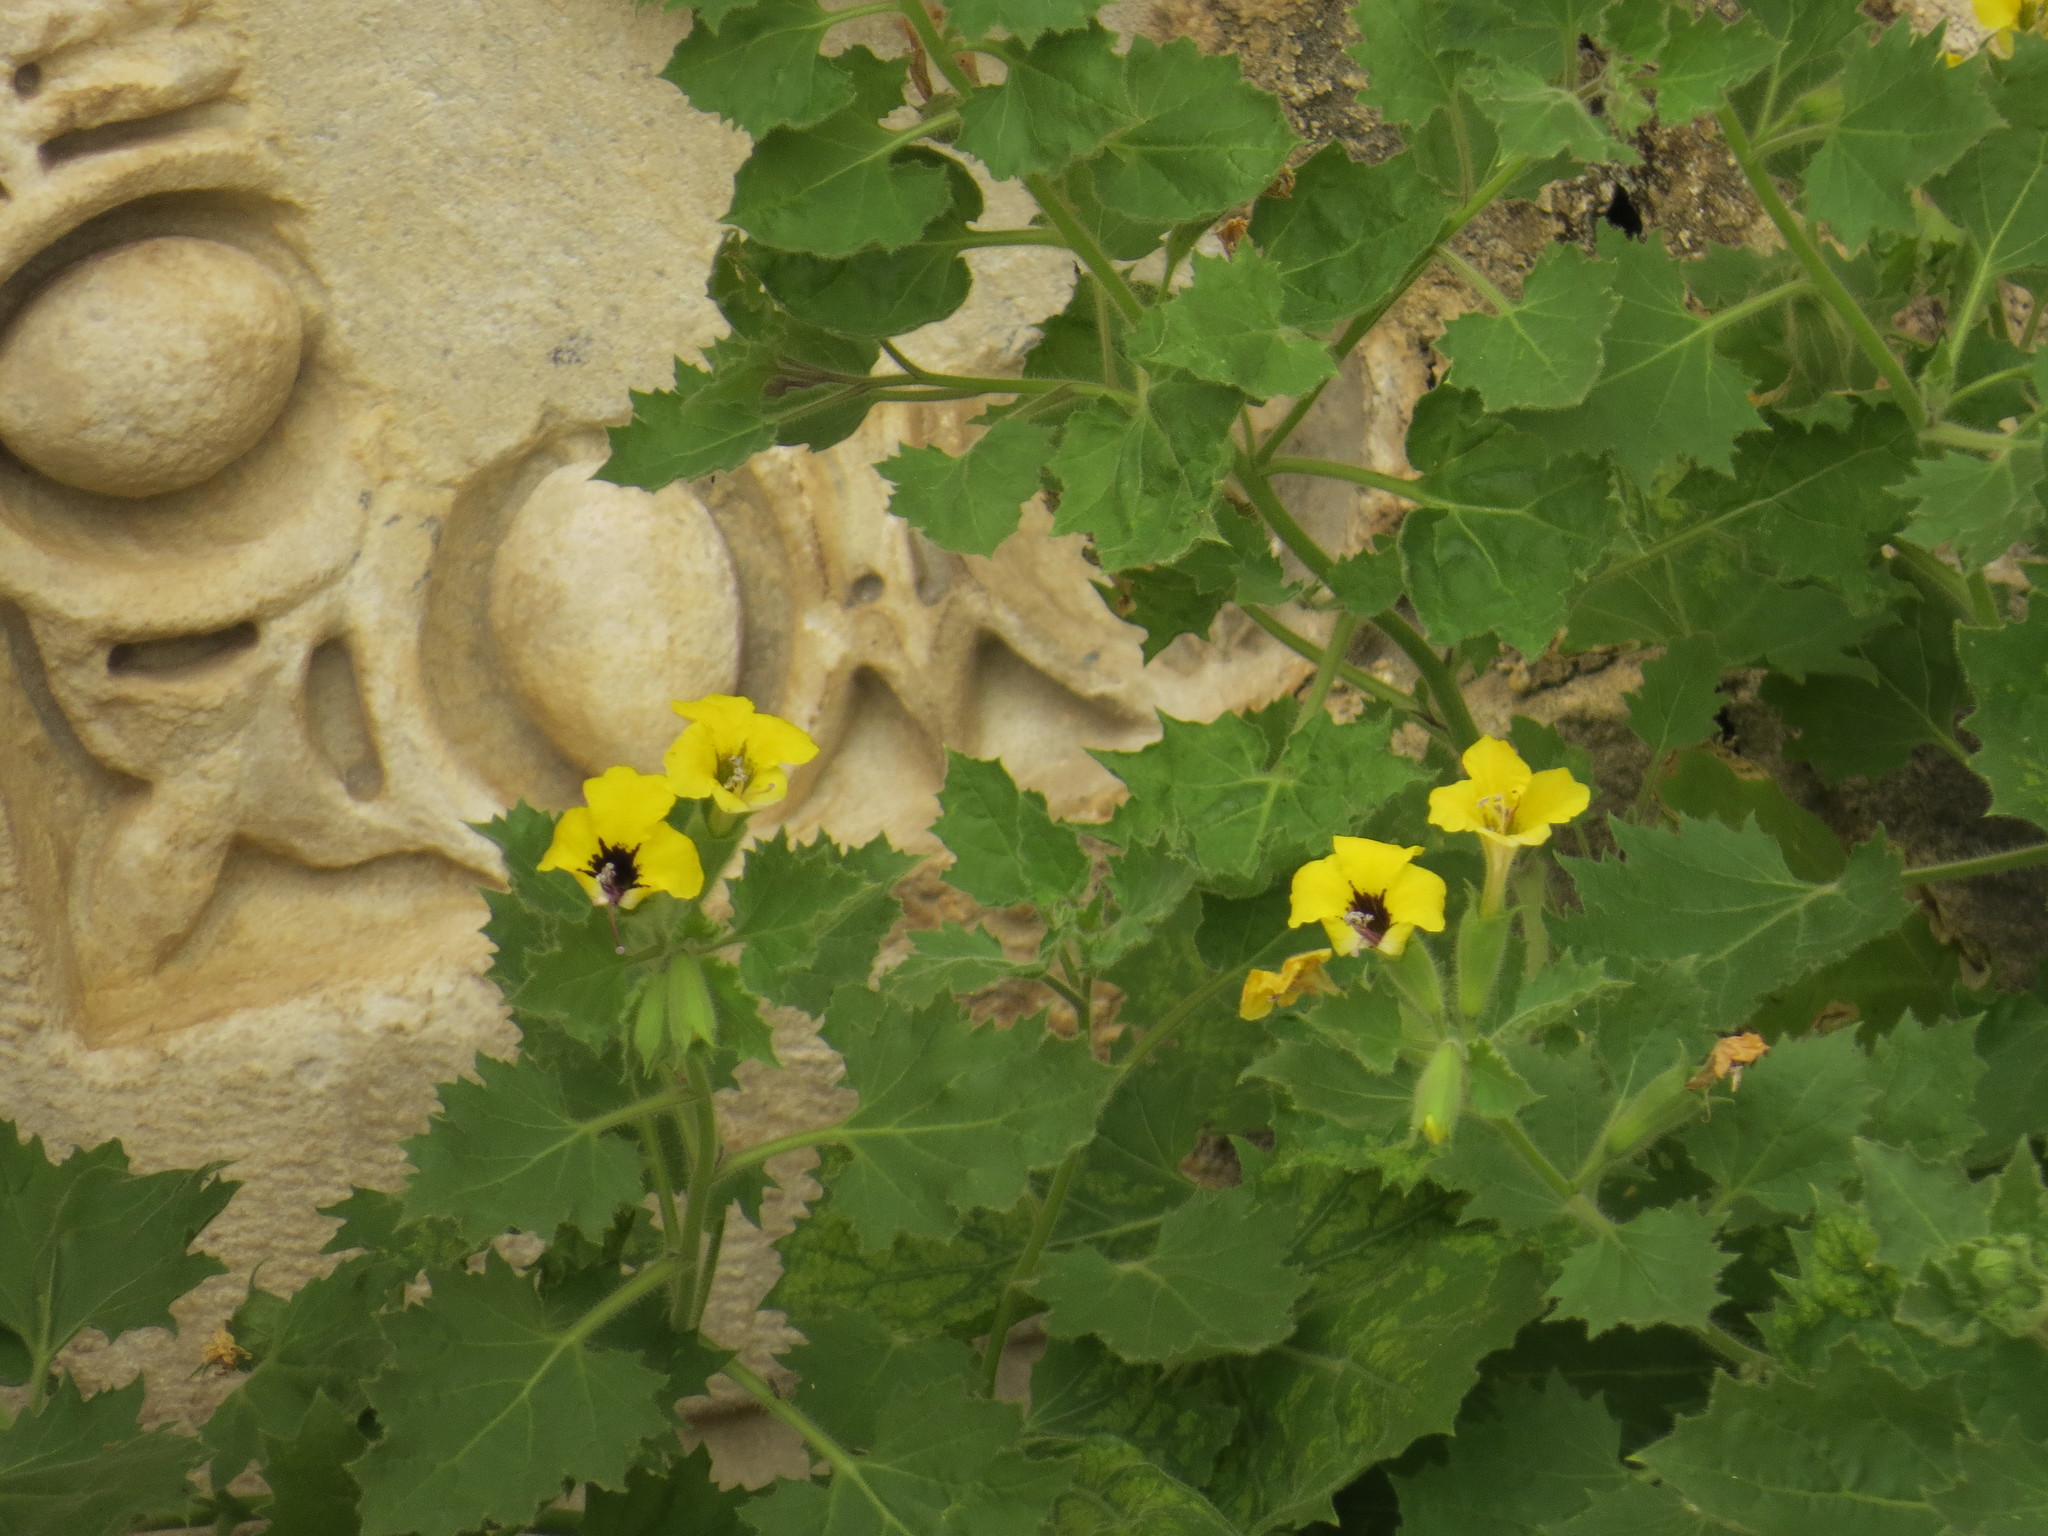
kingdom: Plantae
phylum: Tracheophyta
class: Magnoliopsida
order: Solanales
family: Solanaceae
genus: Hyoscyamus
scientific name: Hyoscyamus aureus
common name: Golden henbane
